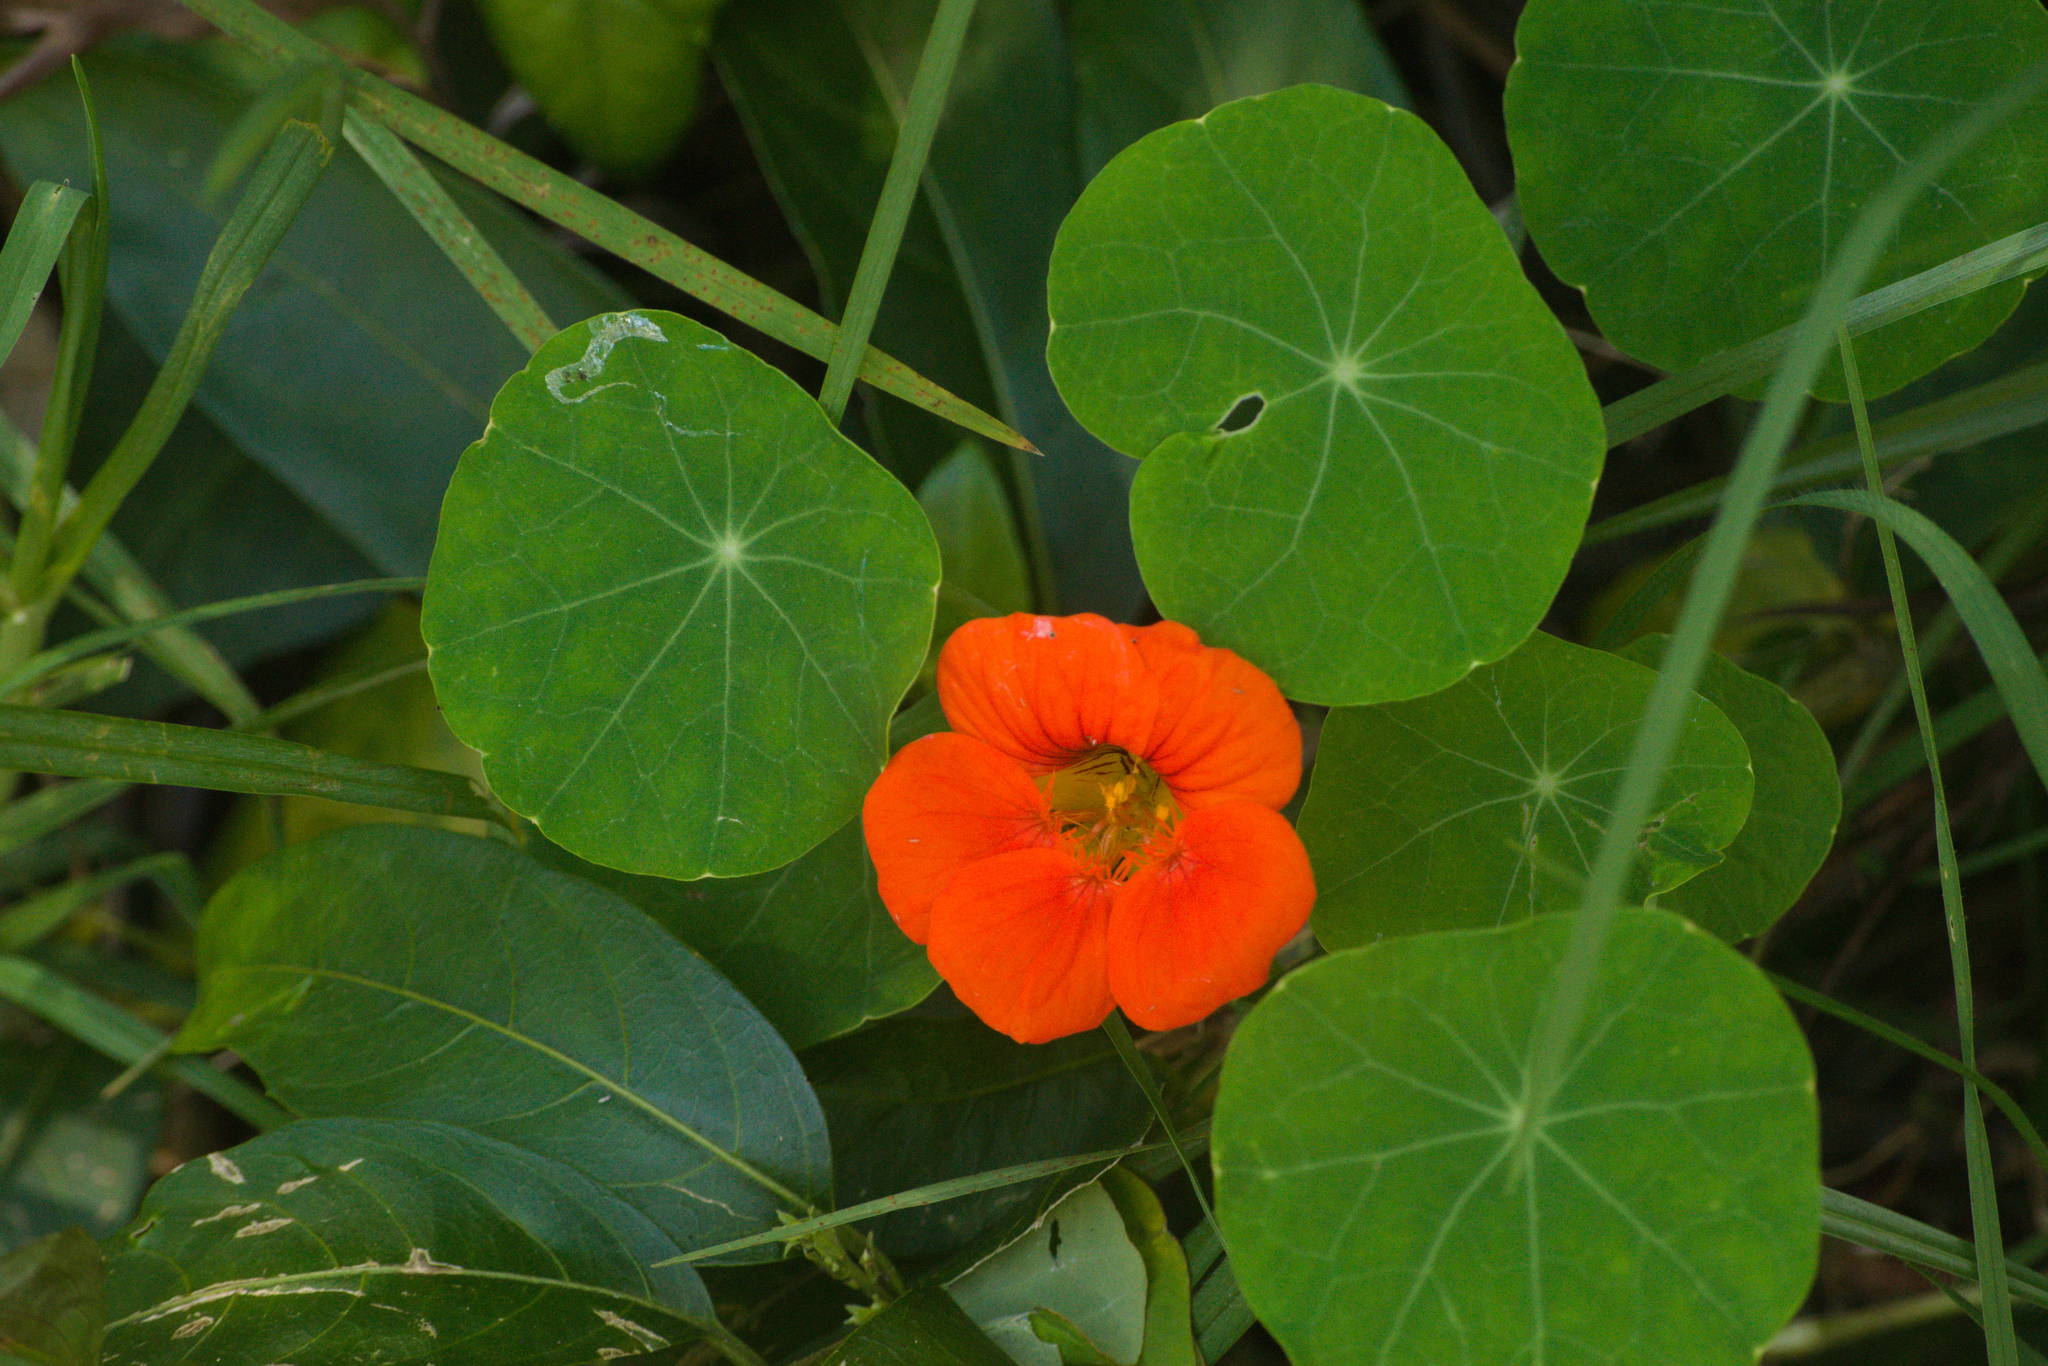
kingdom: Plantae
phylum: Tracheophyta
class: Magnoliopsida
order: Brassicales
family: Tropaeolaceae
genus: Tropaeolum
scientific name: Tropaeolum majus
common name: Nasturtium
